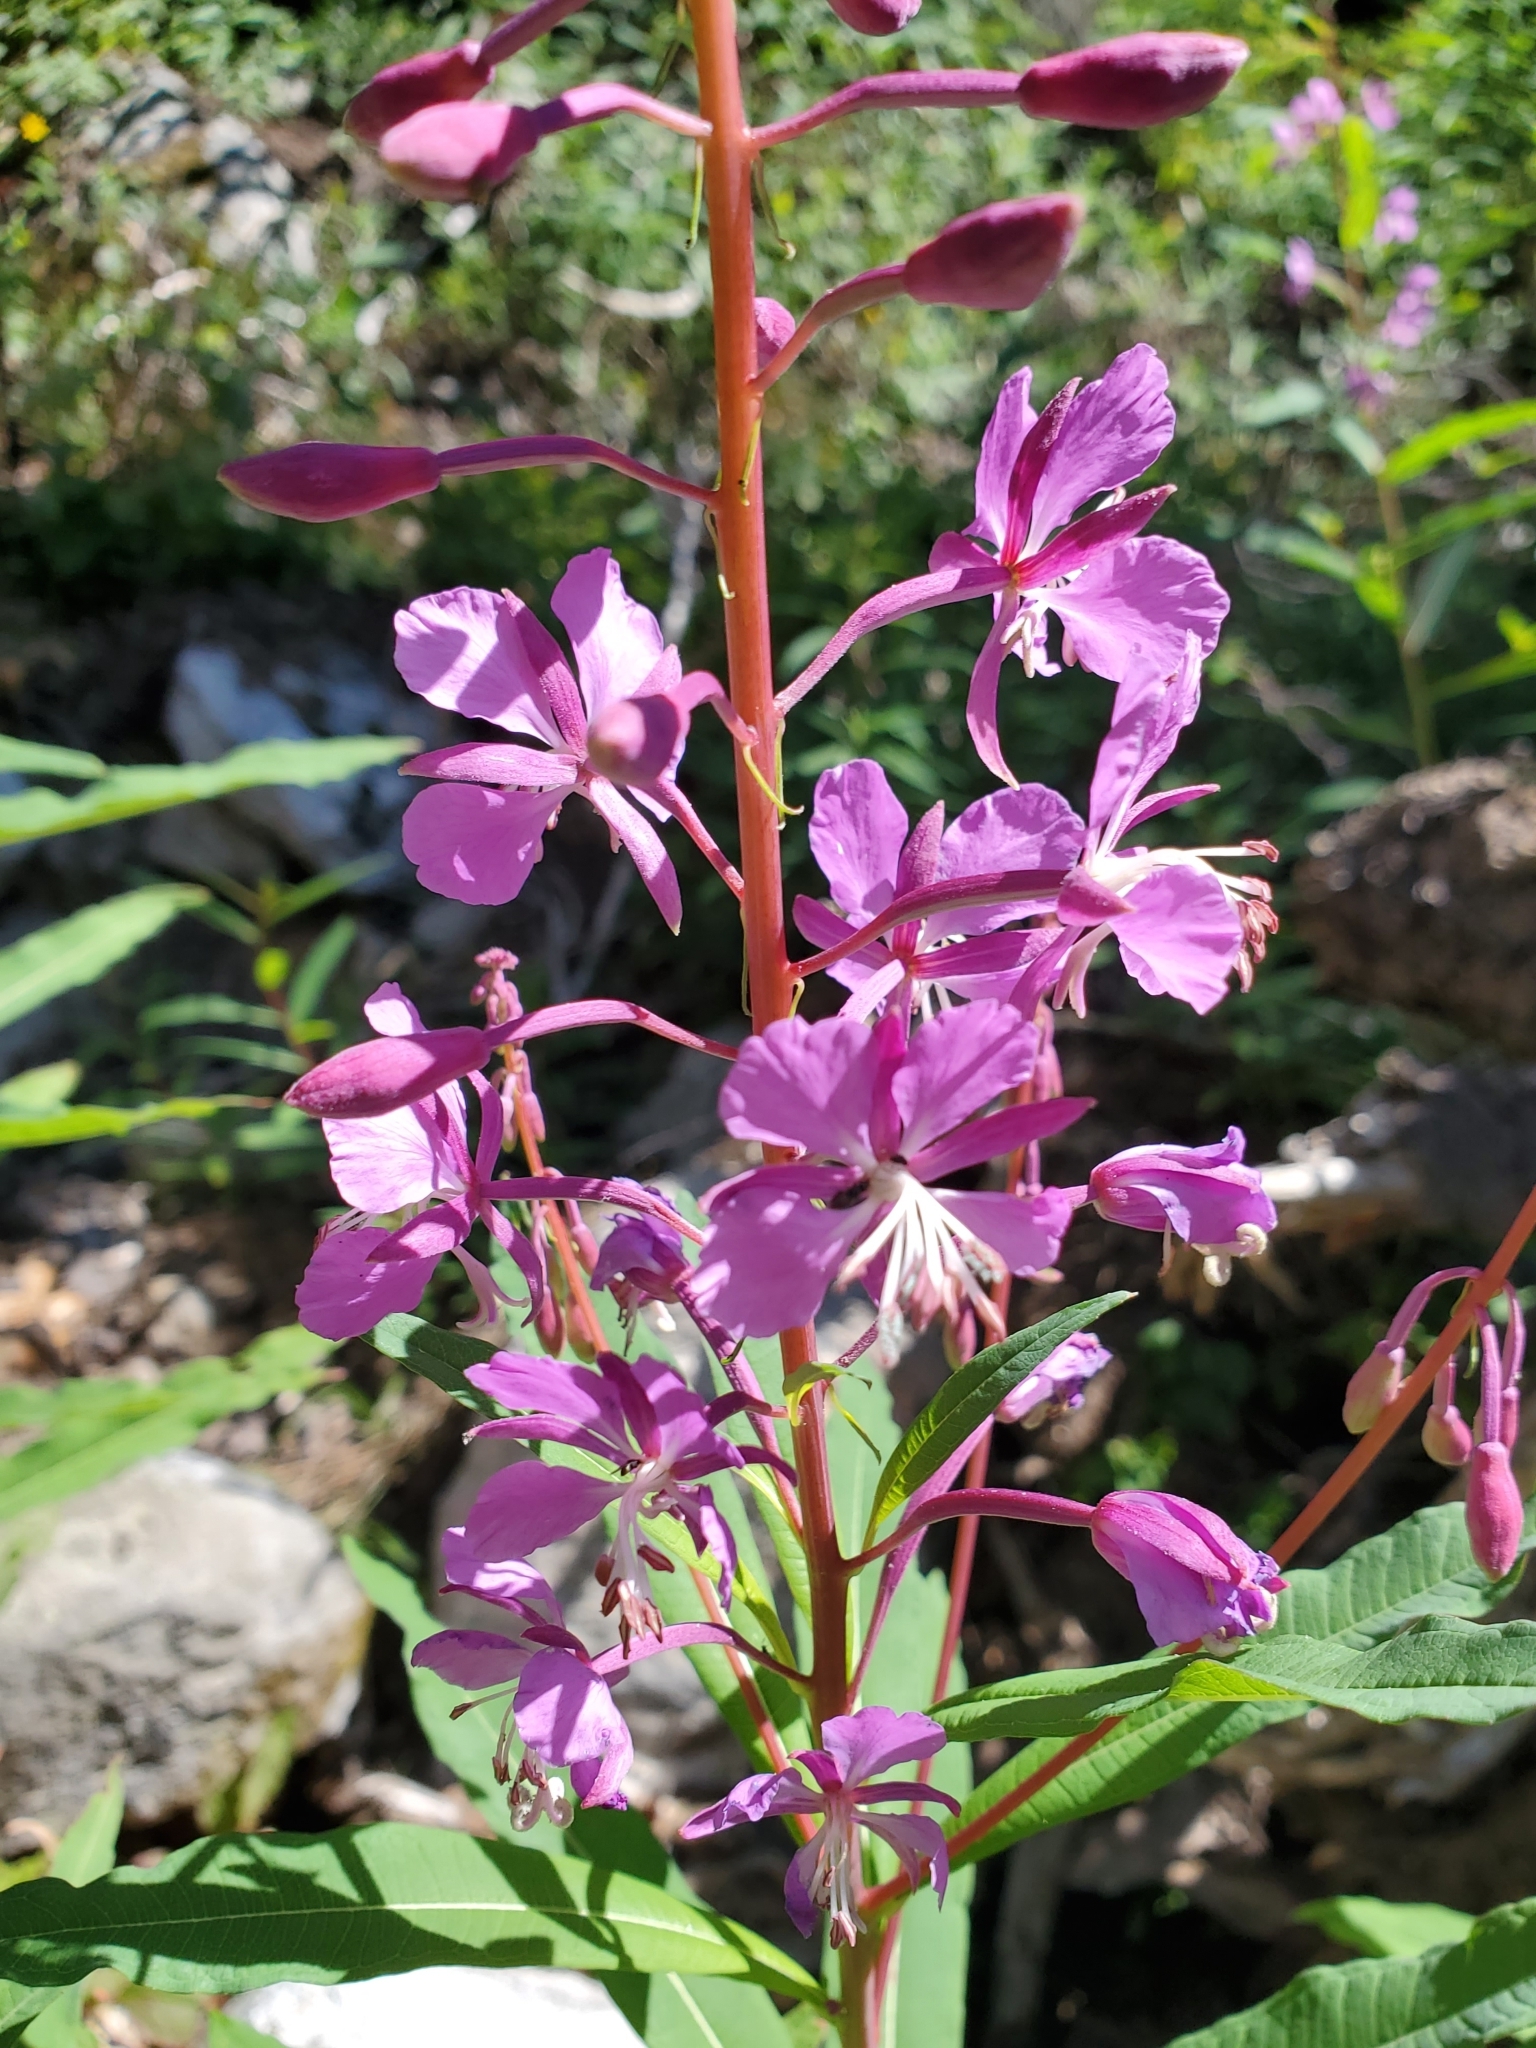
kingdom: Plantae
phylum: Tracheophyta
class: Magnoliopsida
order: Myrtales
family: Onagraceae
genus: Chamaenerion
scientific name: Chamaenerion angustifolium
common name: Fireweed
